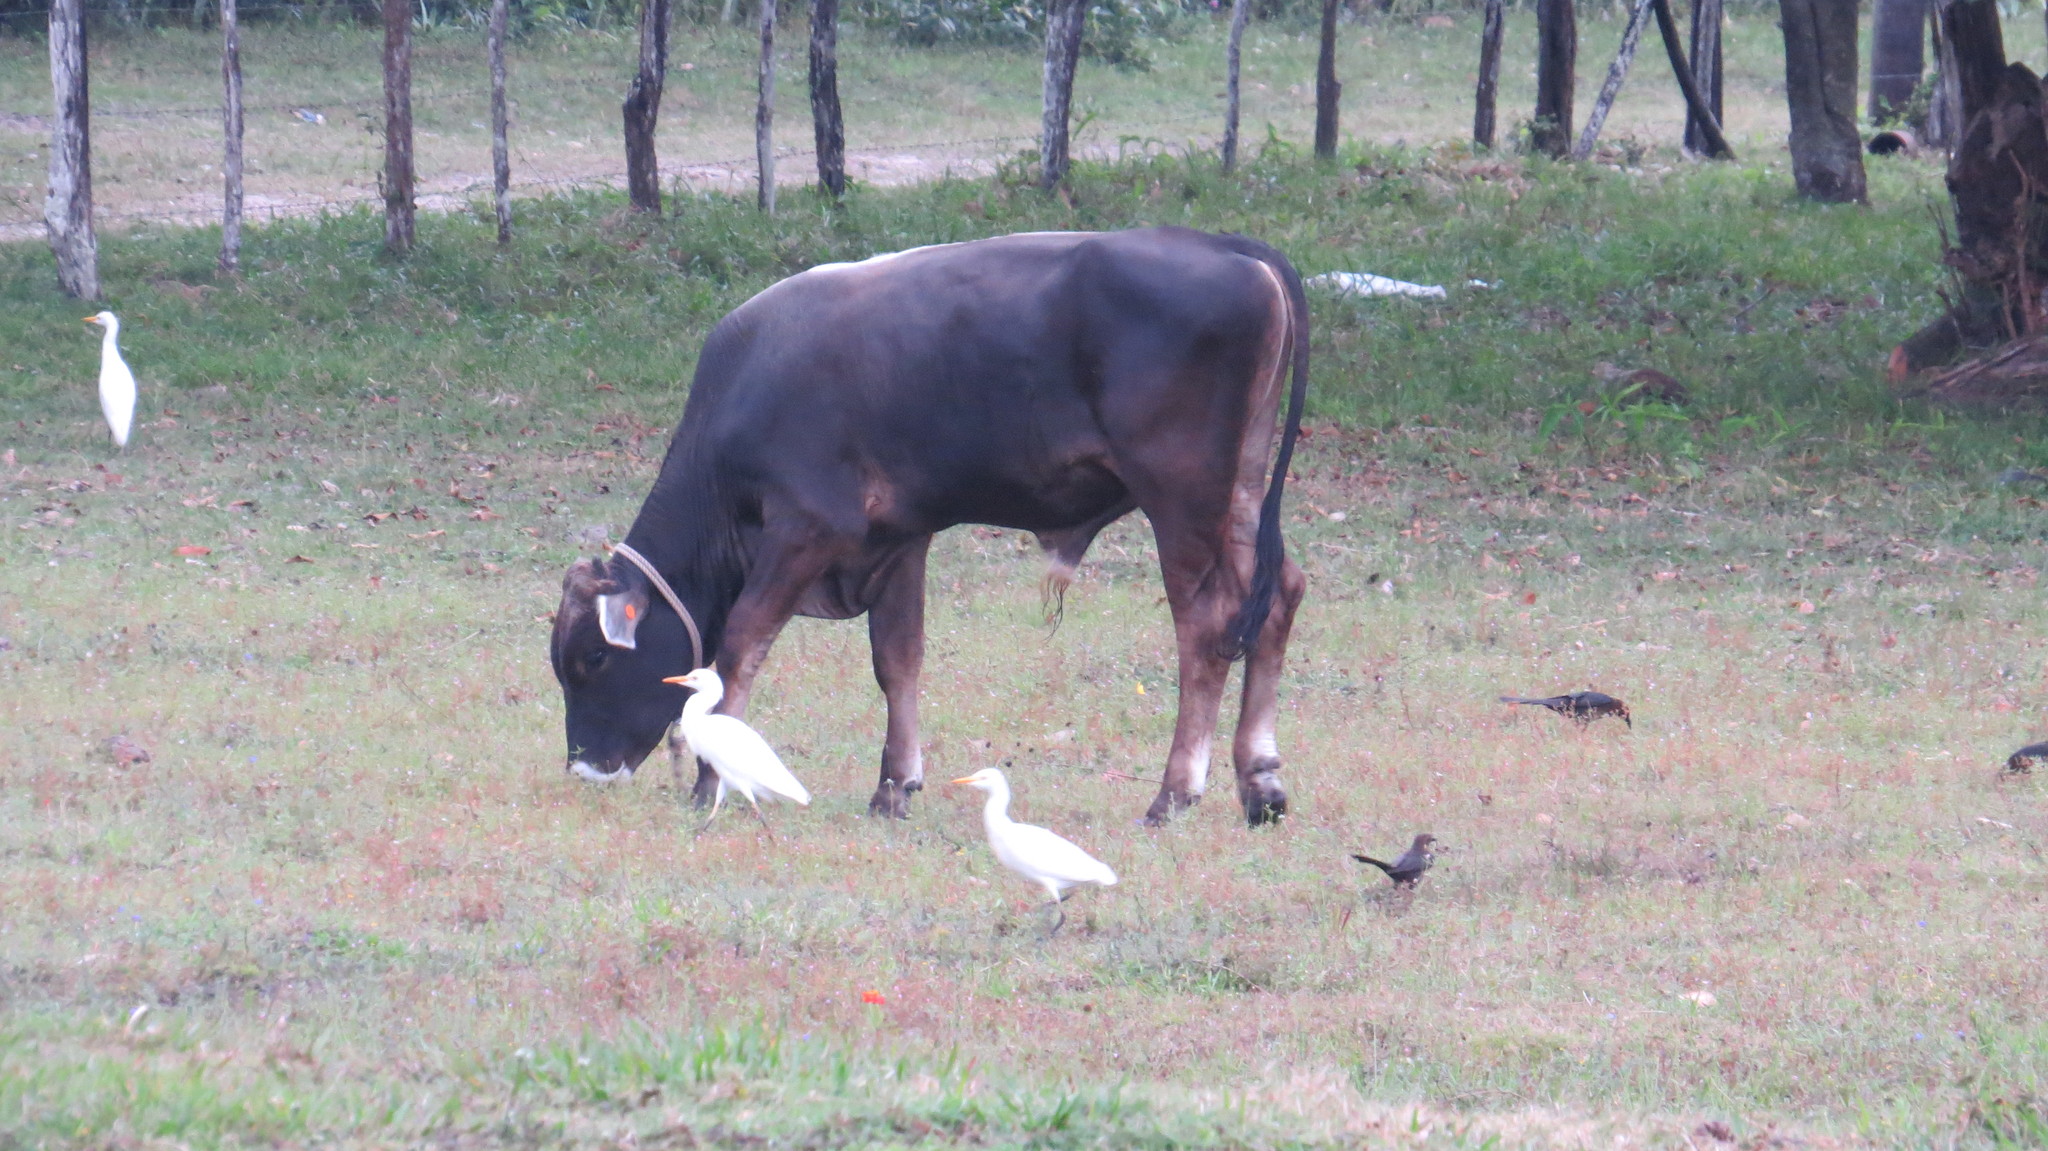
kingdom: Animalia
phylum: Chordata
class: Aves
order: Pelecaniformes
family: Ardeidae
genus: Bubulcus
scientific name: Bubulcus ibis
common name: Cattle egret
